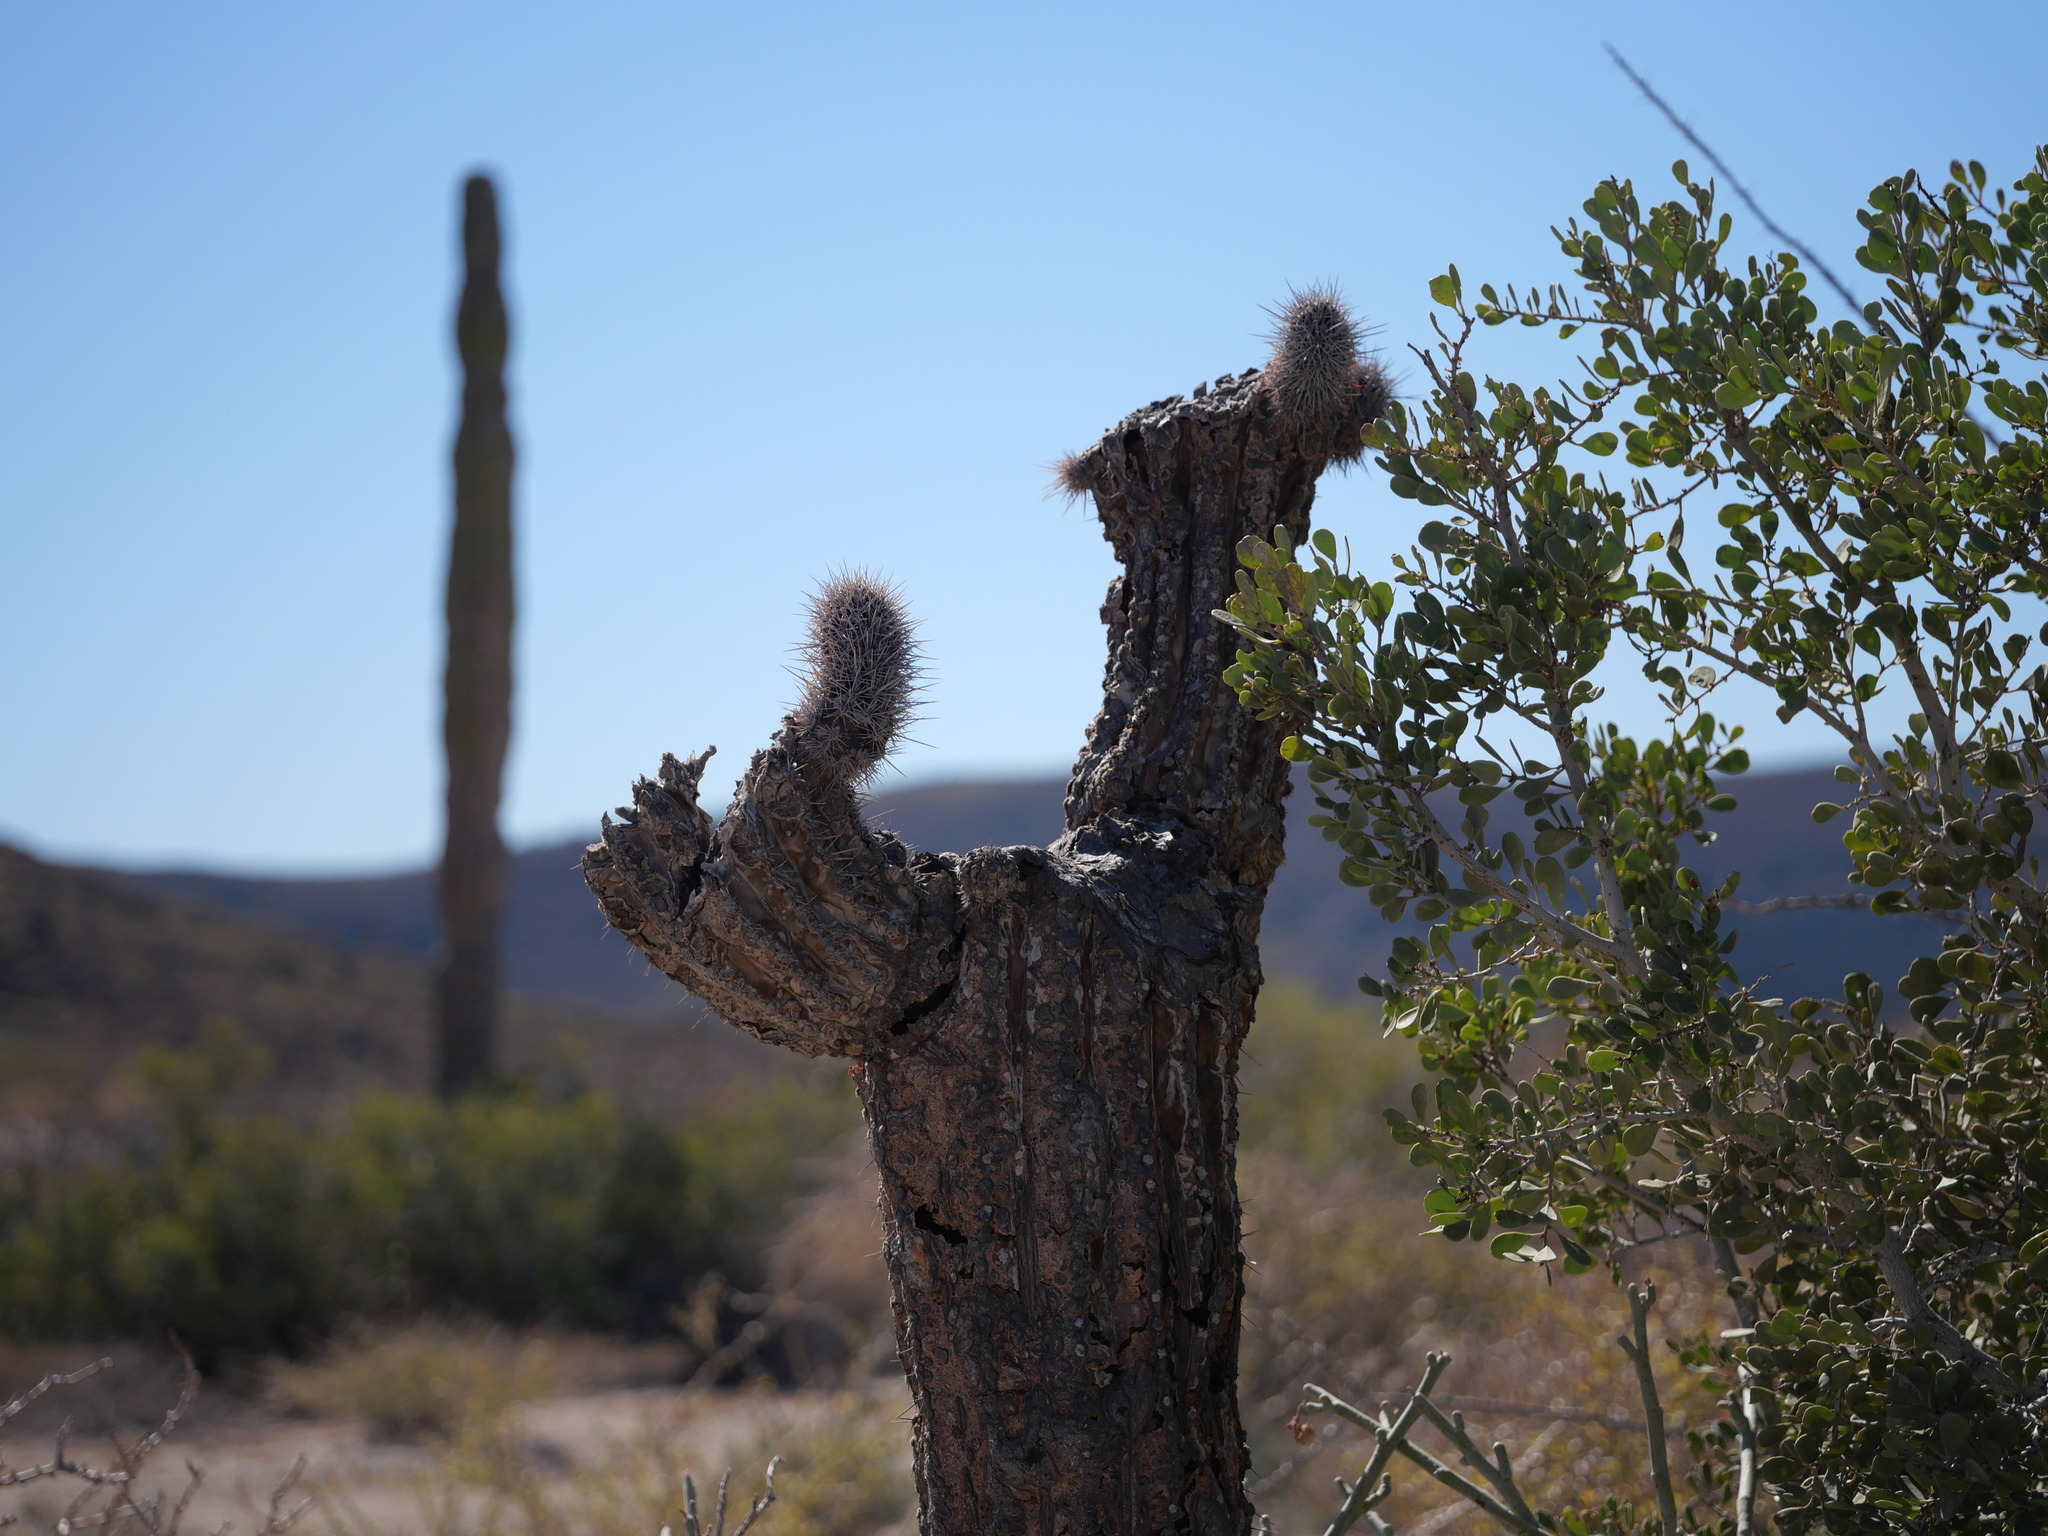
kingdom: Plantae
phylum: Tracheophyta
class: Magnoliopsida
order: Caryophyllales
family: Cactaceae
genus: Pachycereus
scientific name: Pachycereus pringlei
